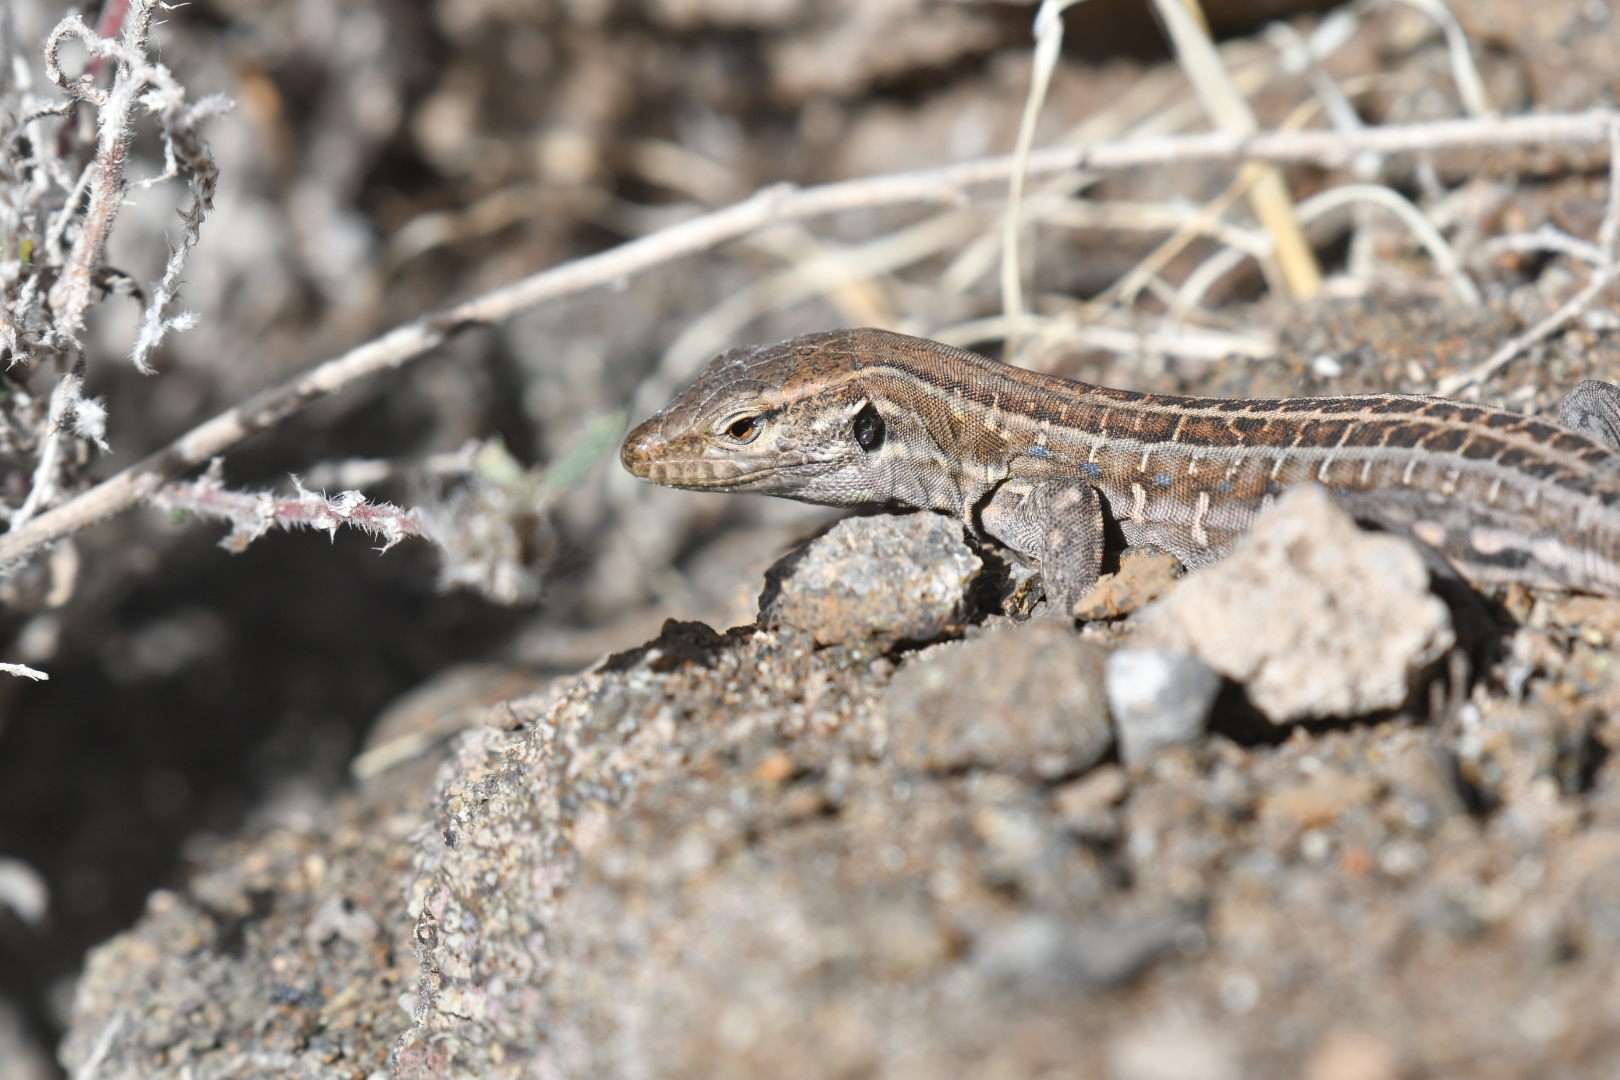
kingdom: Animalia
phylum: Chordata
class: Squamata
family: Lacertidae
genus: Gallotia
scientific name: Gallotia galloti
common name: Gallot's lizard
